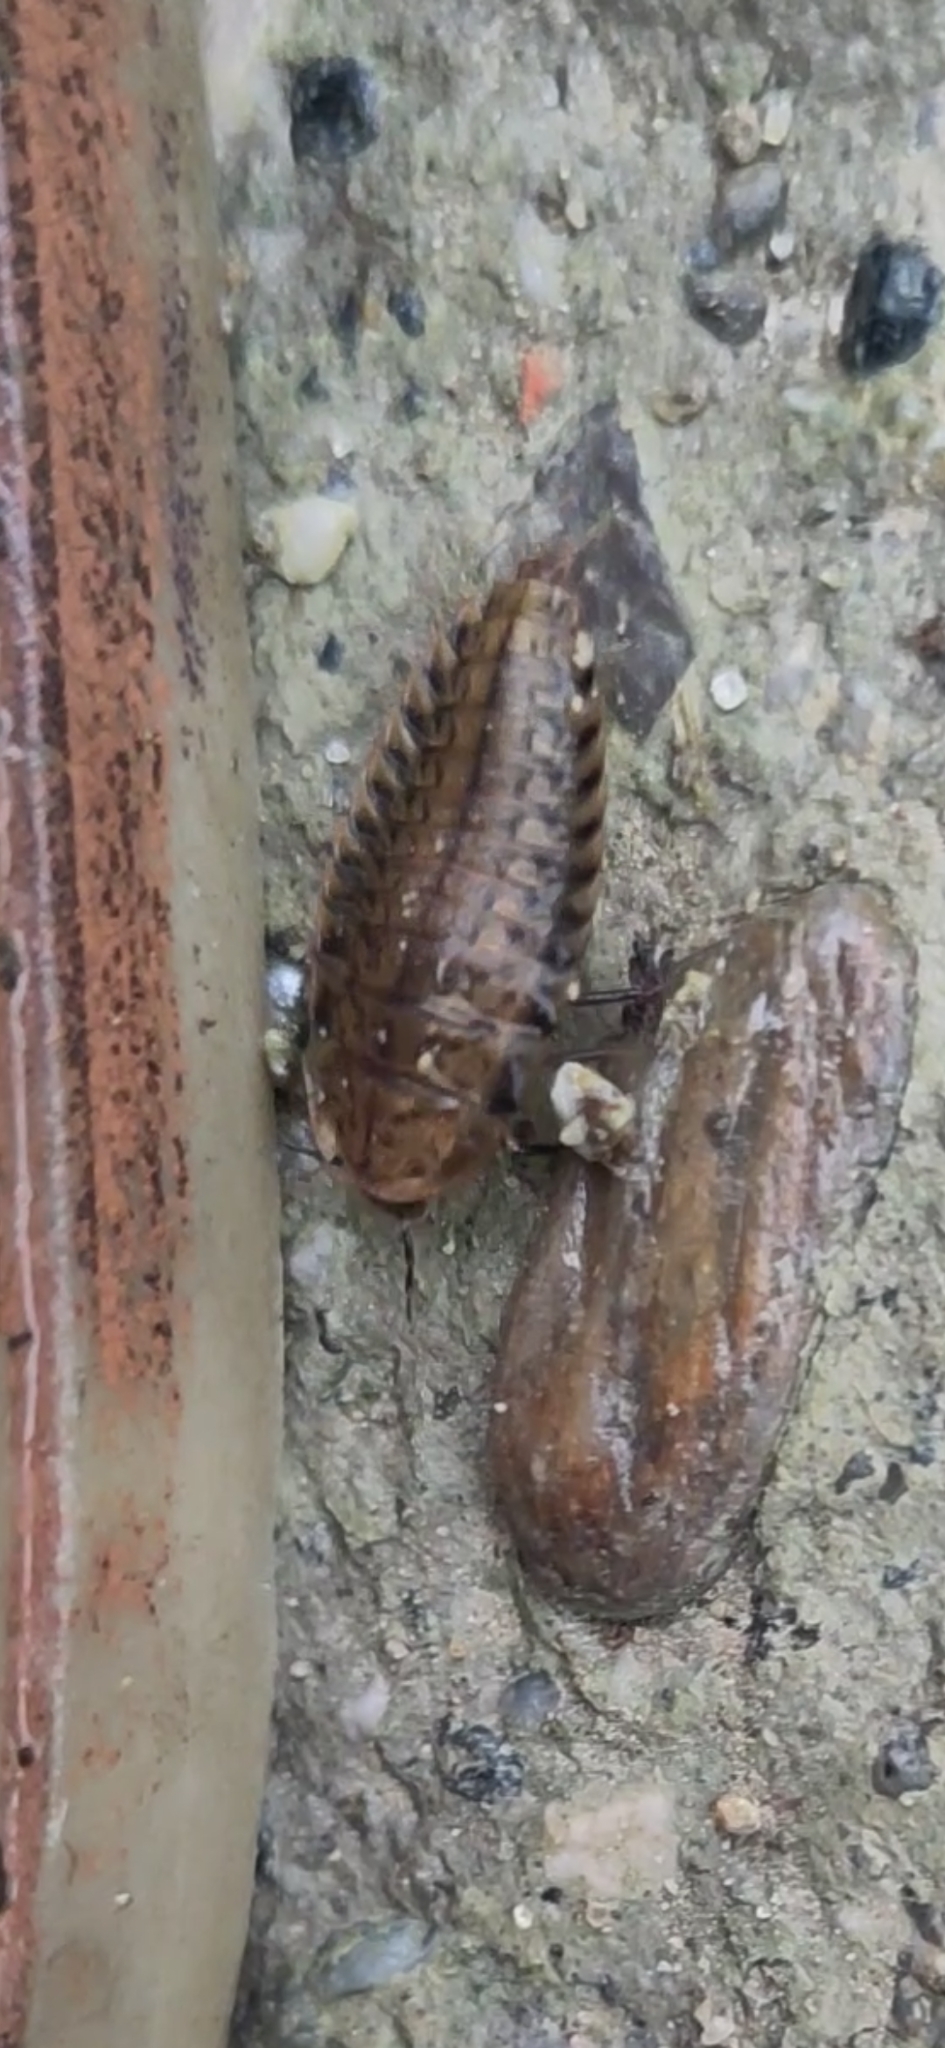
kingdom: Animalia
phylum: Arthropoda
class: Insecta
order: Coleoptera
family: Staphylinidae
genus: Silpha
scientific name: Silpha obscura
